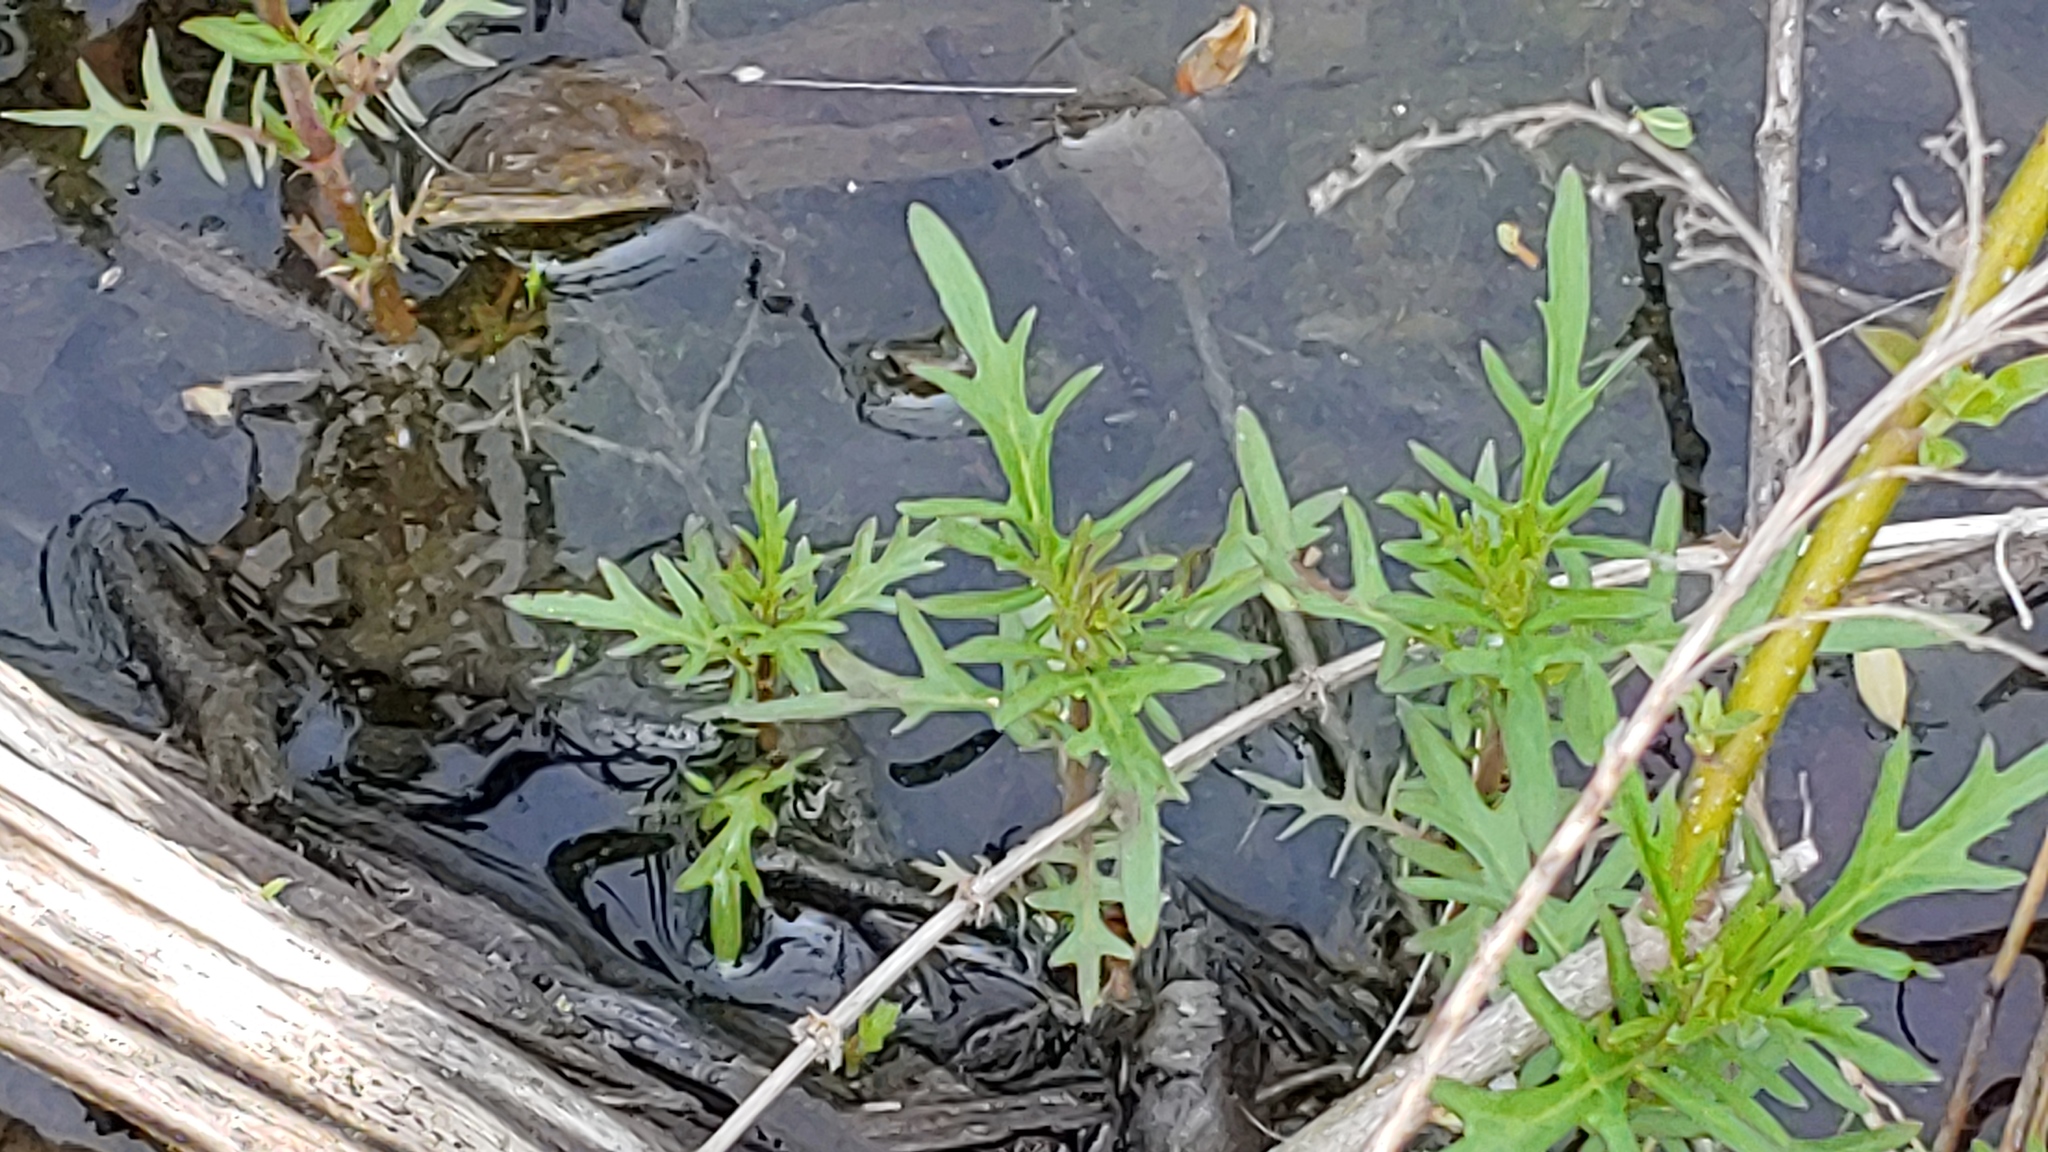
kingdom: Plantae
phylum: Tracheophyta
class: Magnoliopsida
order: Lamiales
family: Lamiaceae
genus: Lycopus
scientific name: Lycopus americanus
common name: American bugleweed
